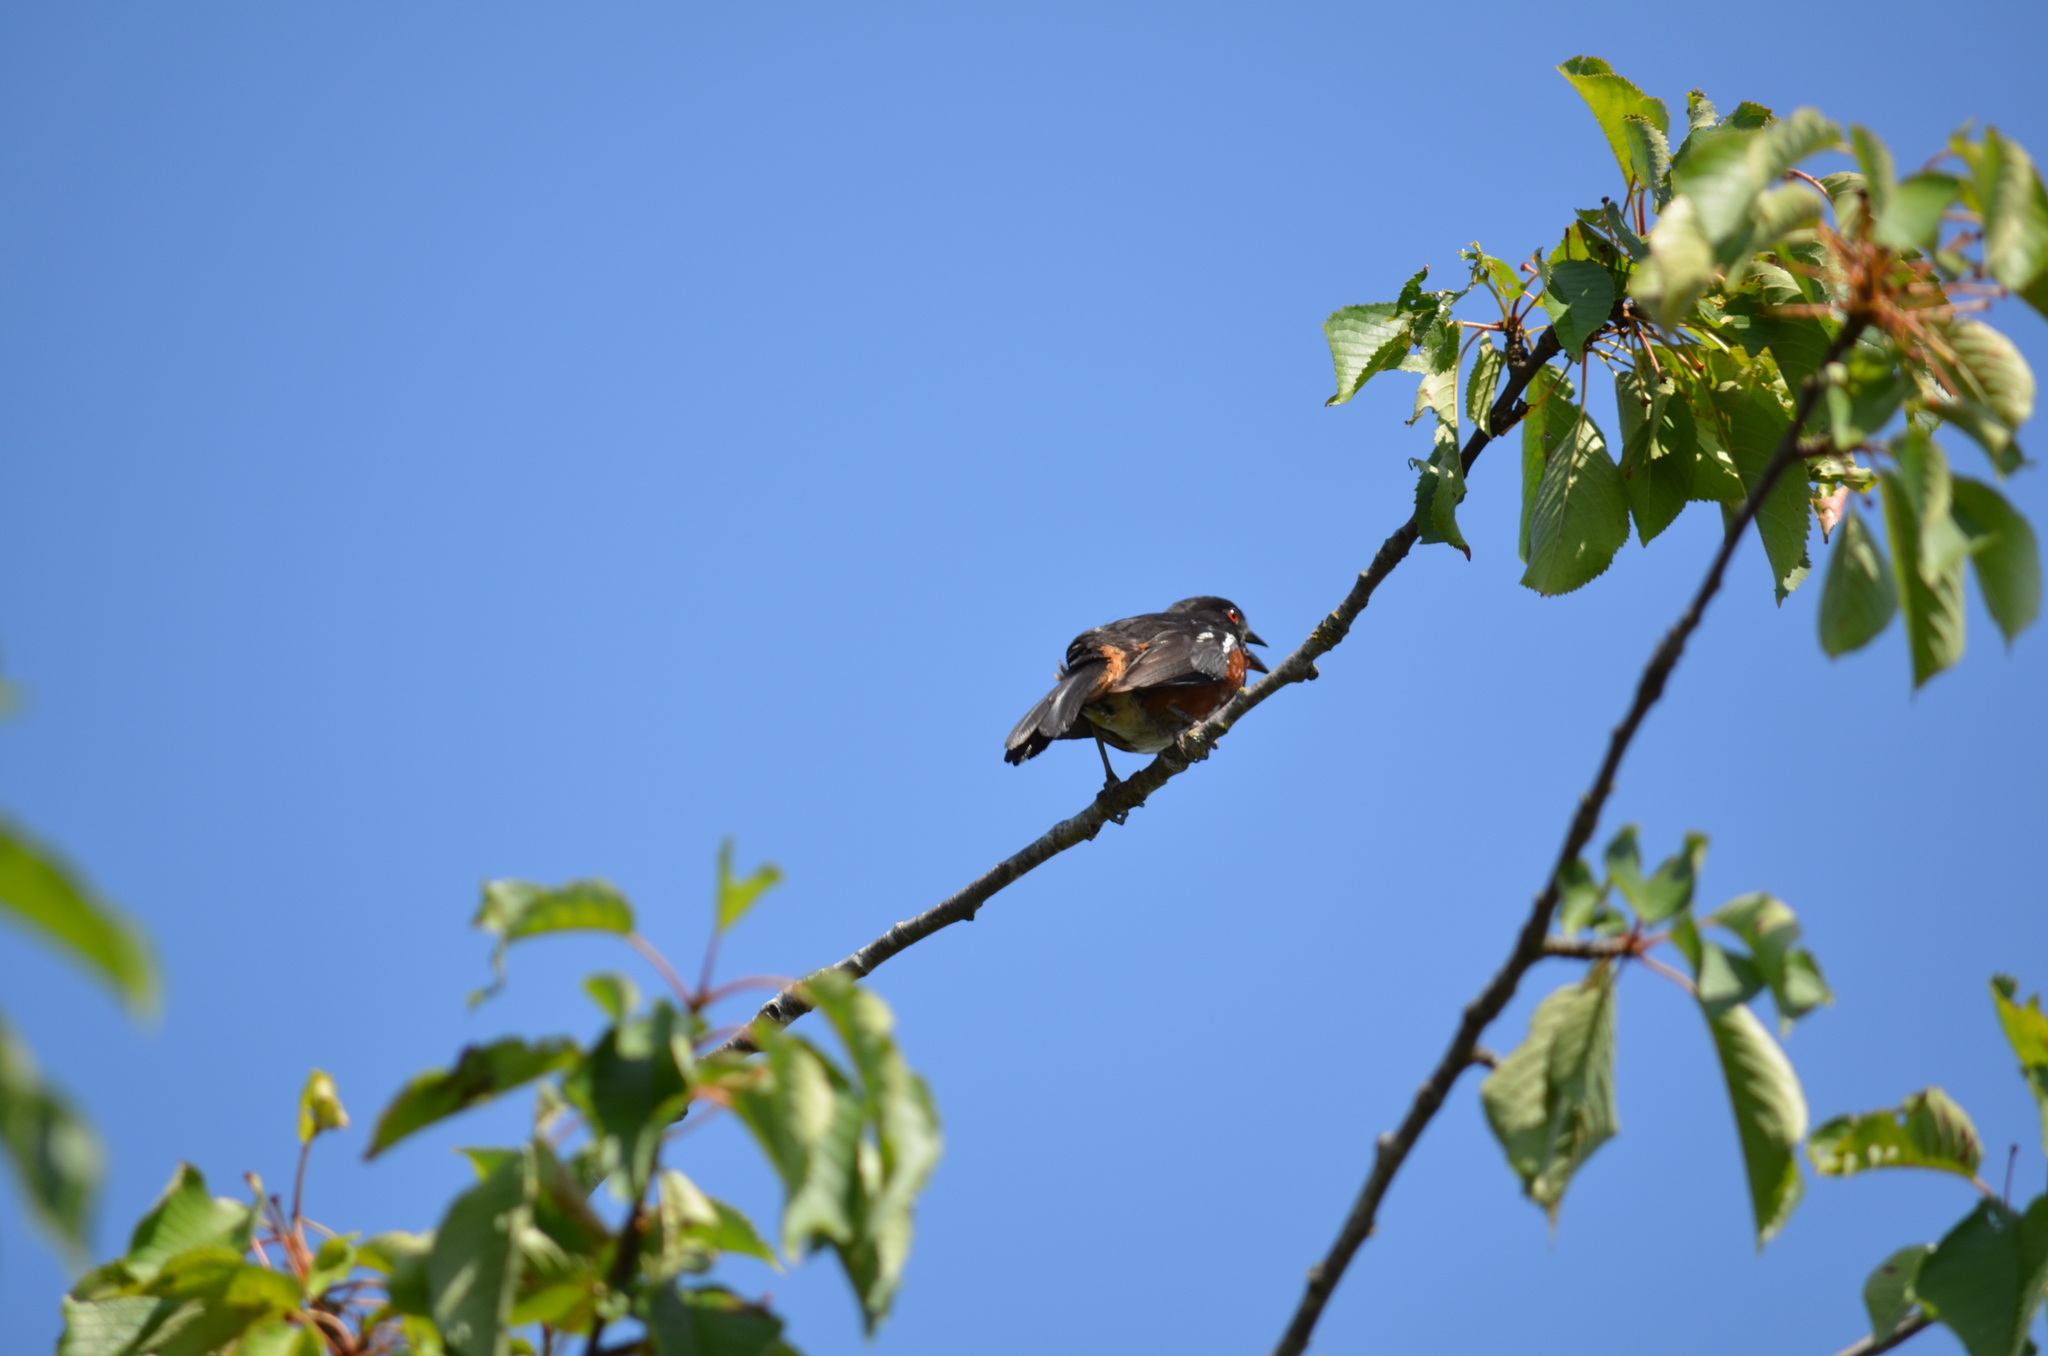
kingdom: Animalia
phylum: Chordata
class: Aves
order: Passeriformes
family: Passerellidae
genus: Pipilo
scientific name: Pipilo maculatus
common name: Spotted towhee
